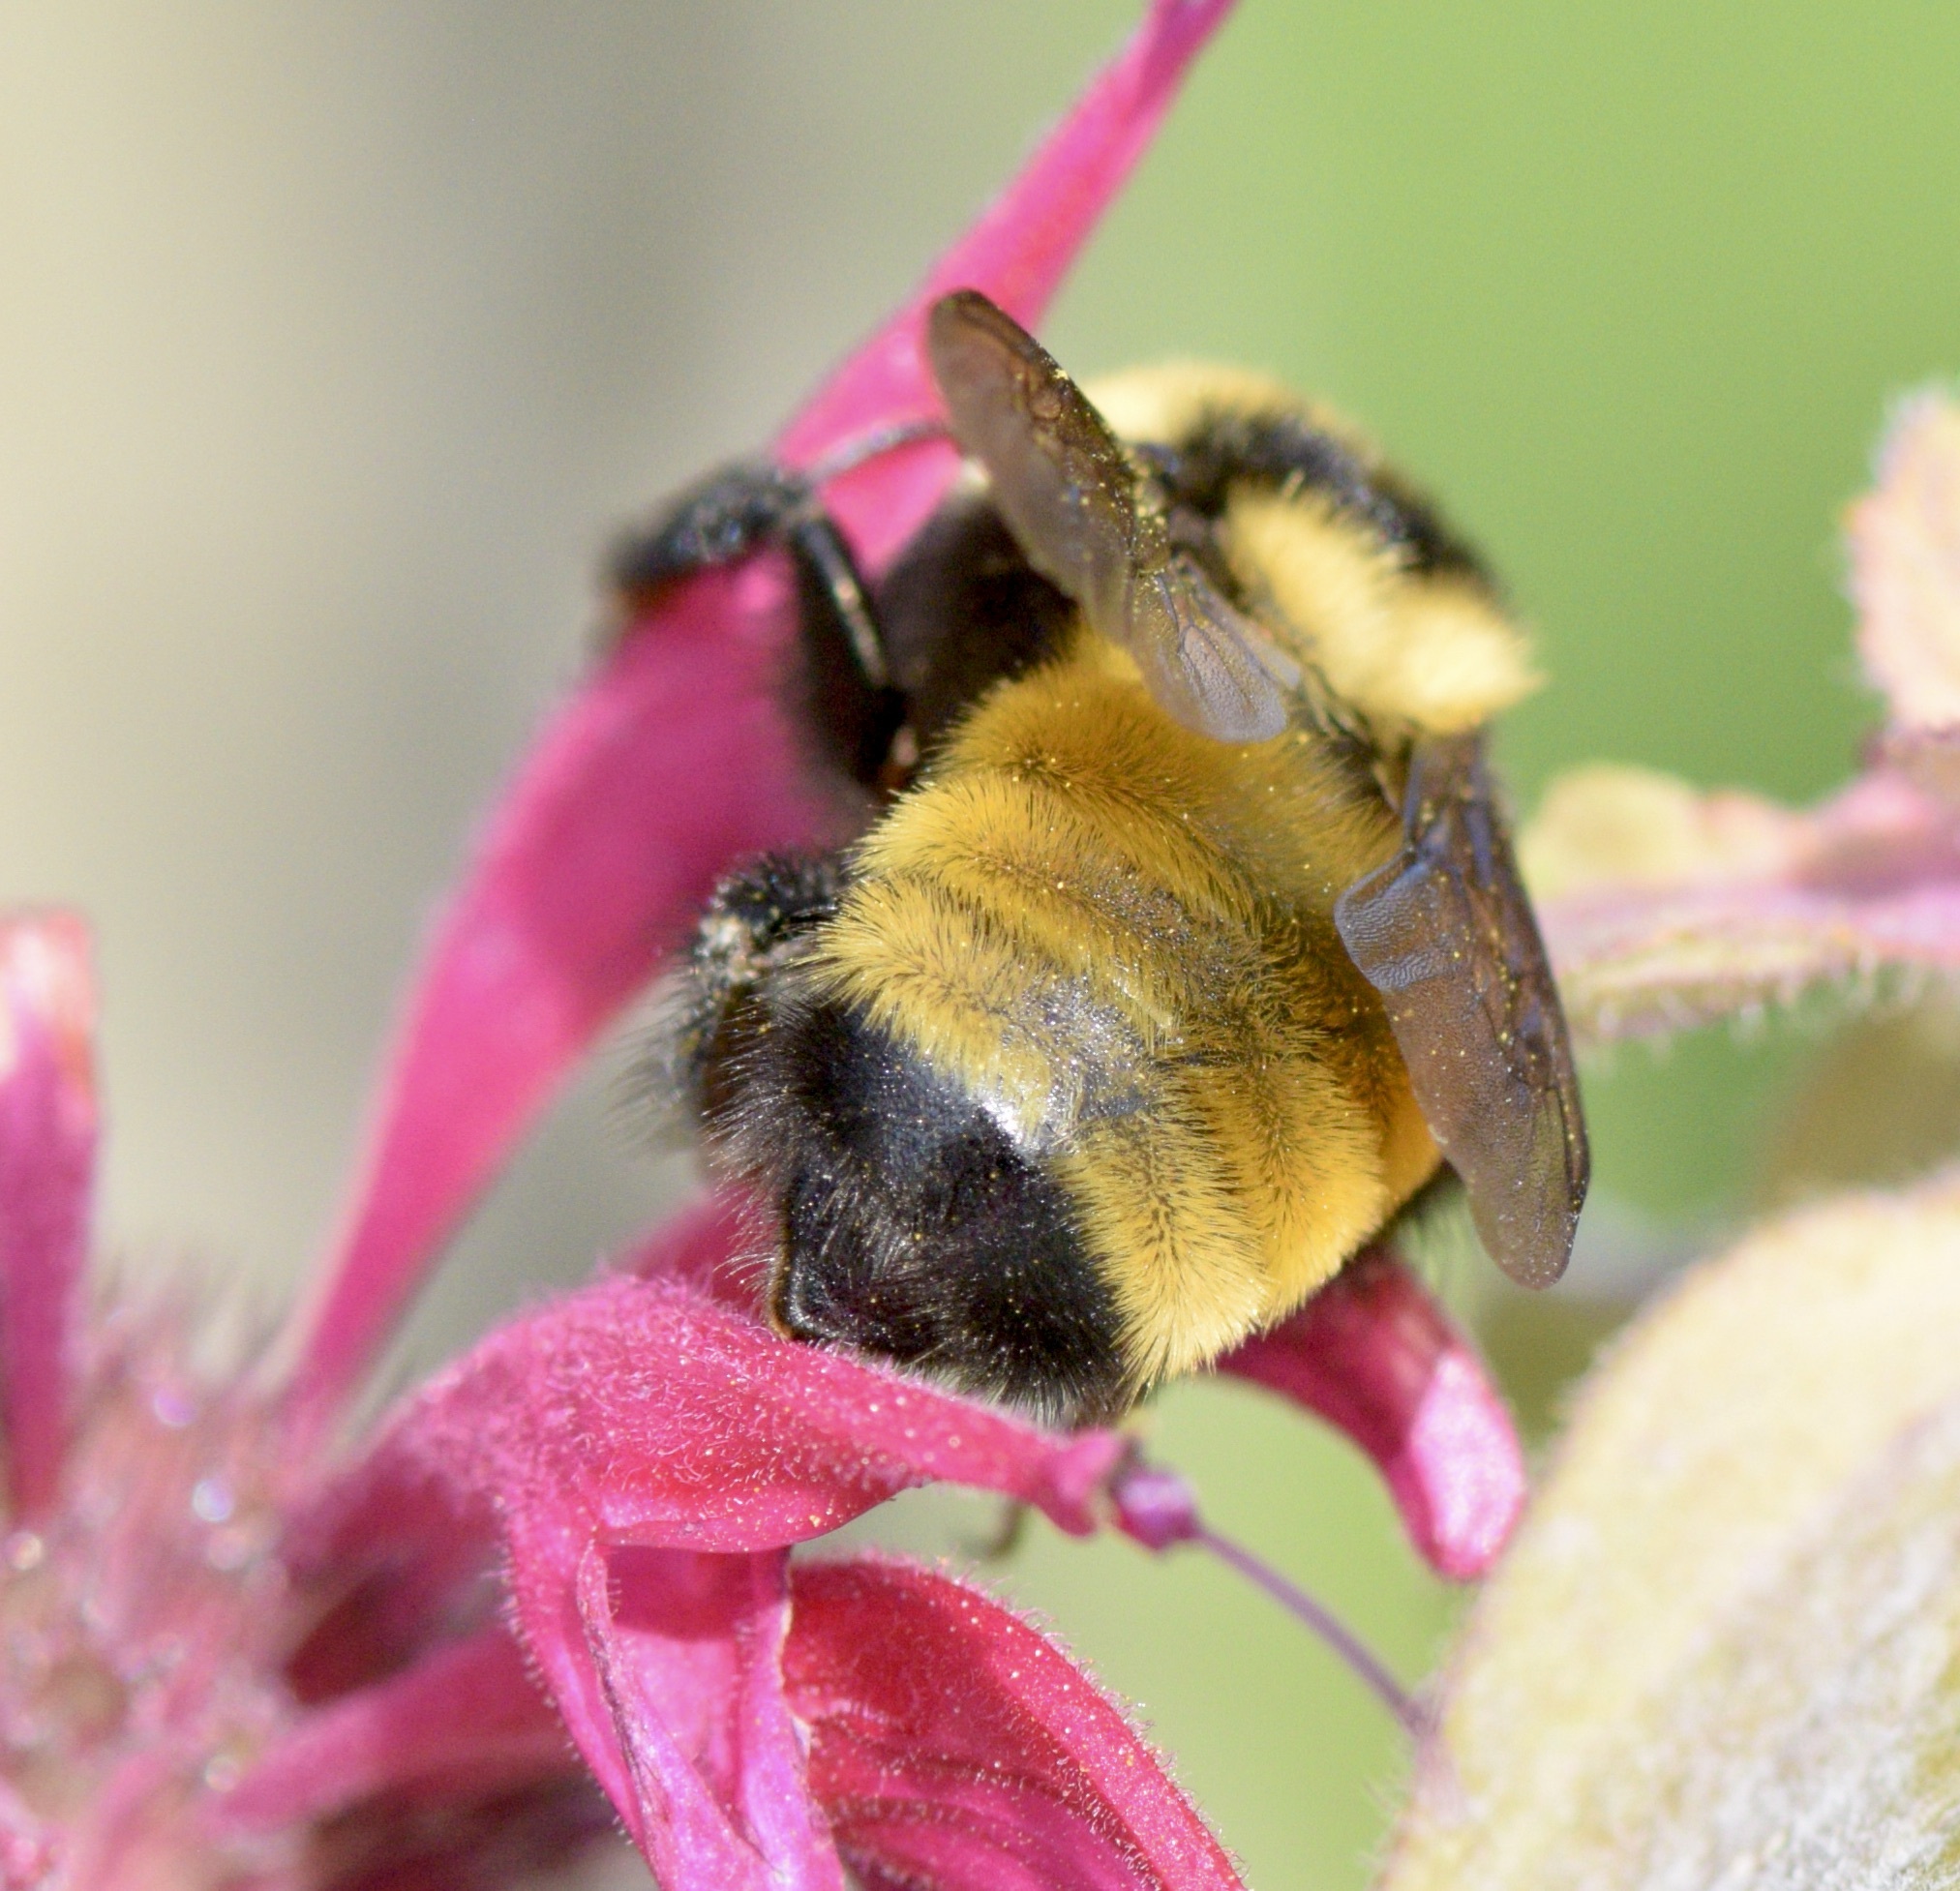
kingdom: Animalia
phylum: Arthropoda
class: Insecta
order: Hymenoptera
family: Apidae
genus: Bombus
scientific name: Bombus borealis
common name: Northern amber bumble bee
